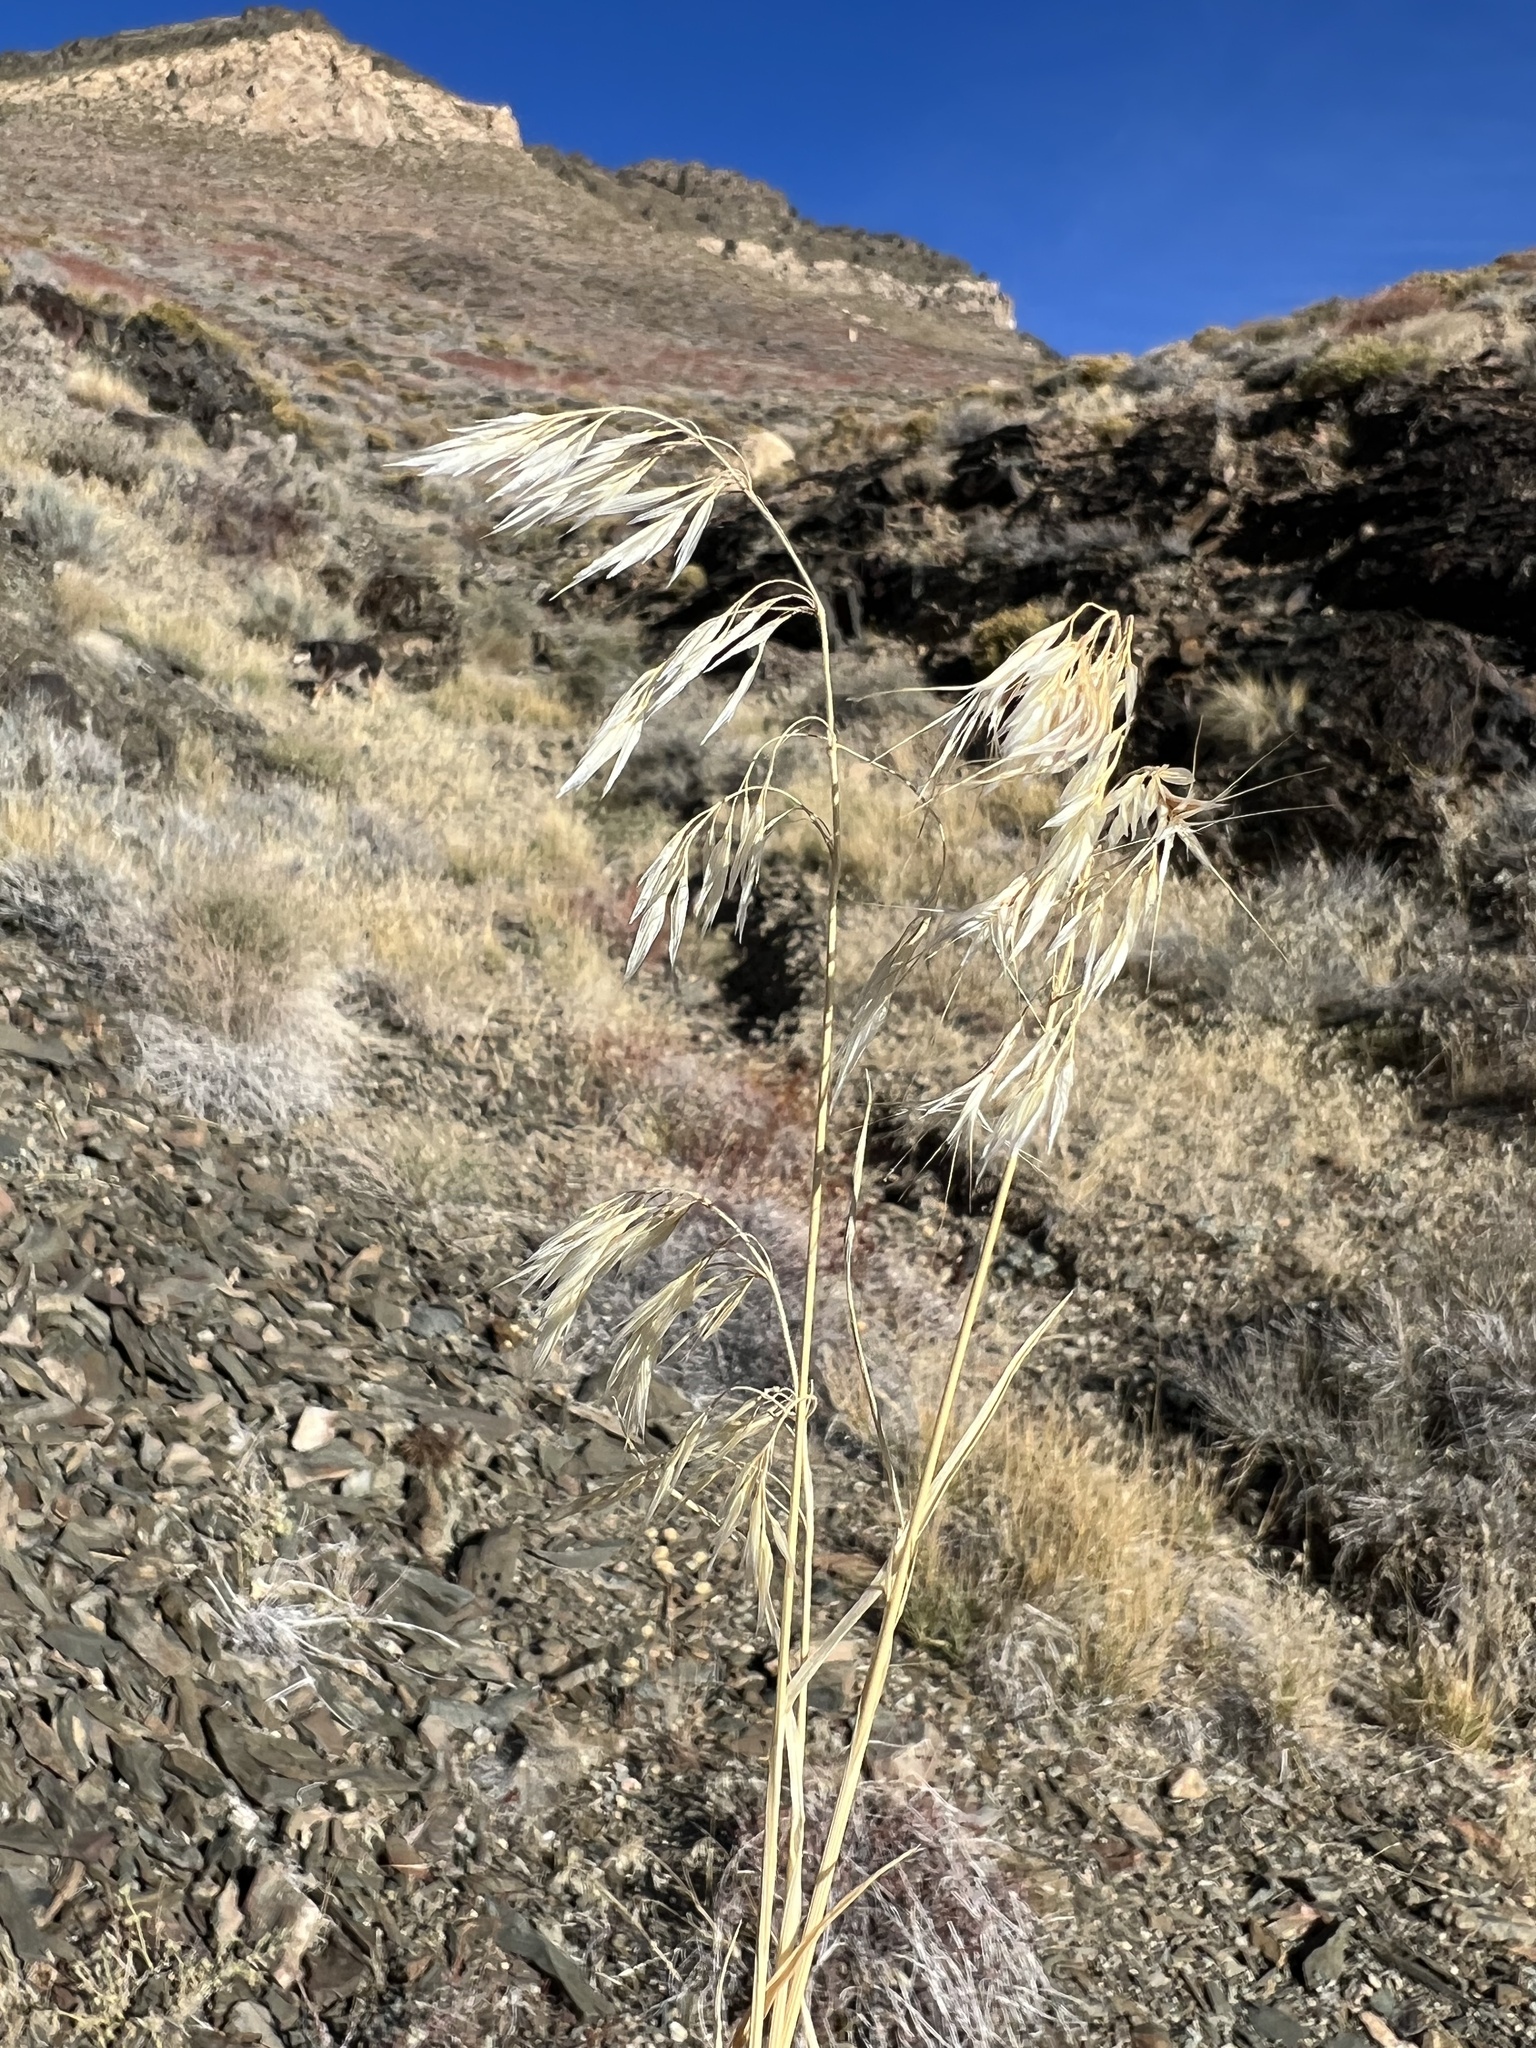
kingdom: Plantae
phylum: Tracheophyta
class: Liliopsida
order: Poales
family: Poaceae
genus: Bromus
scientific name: Bromus tectorum
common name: Cheatgrass
